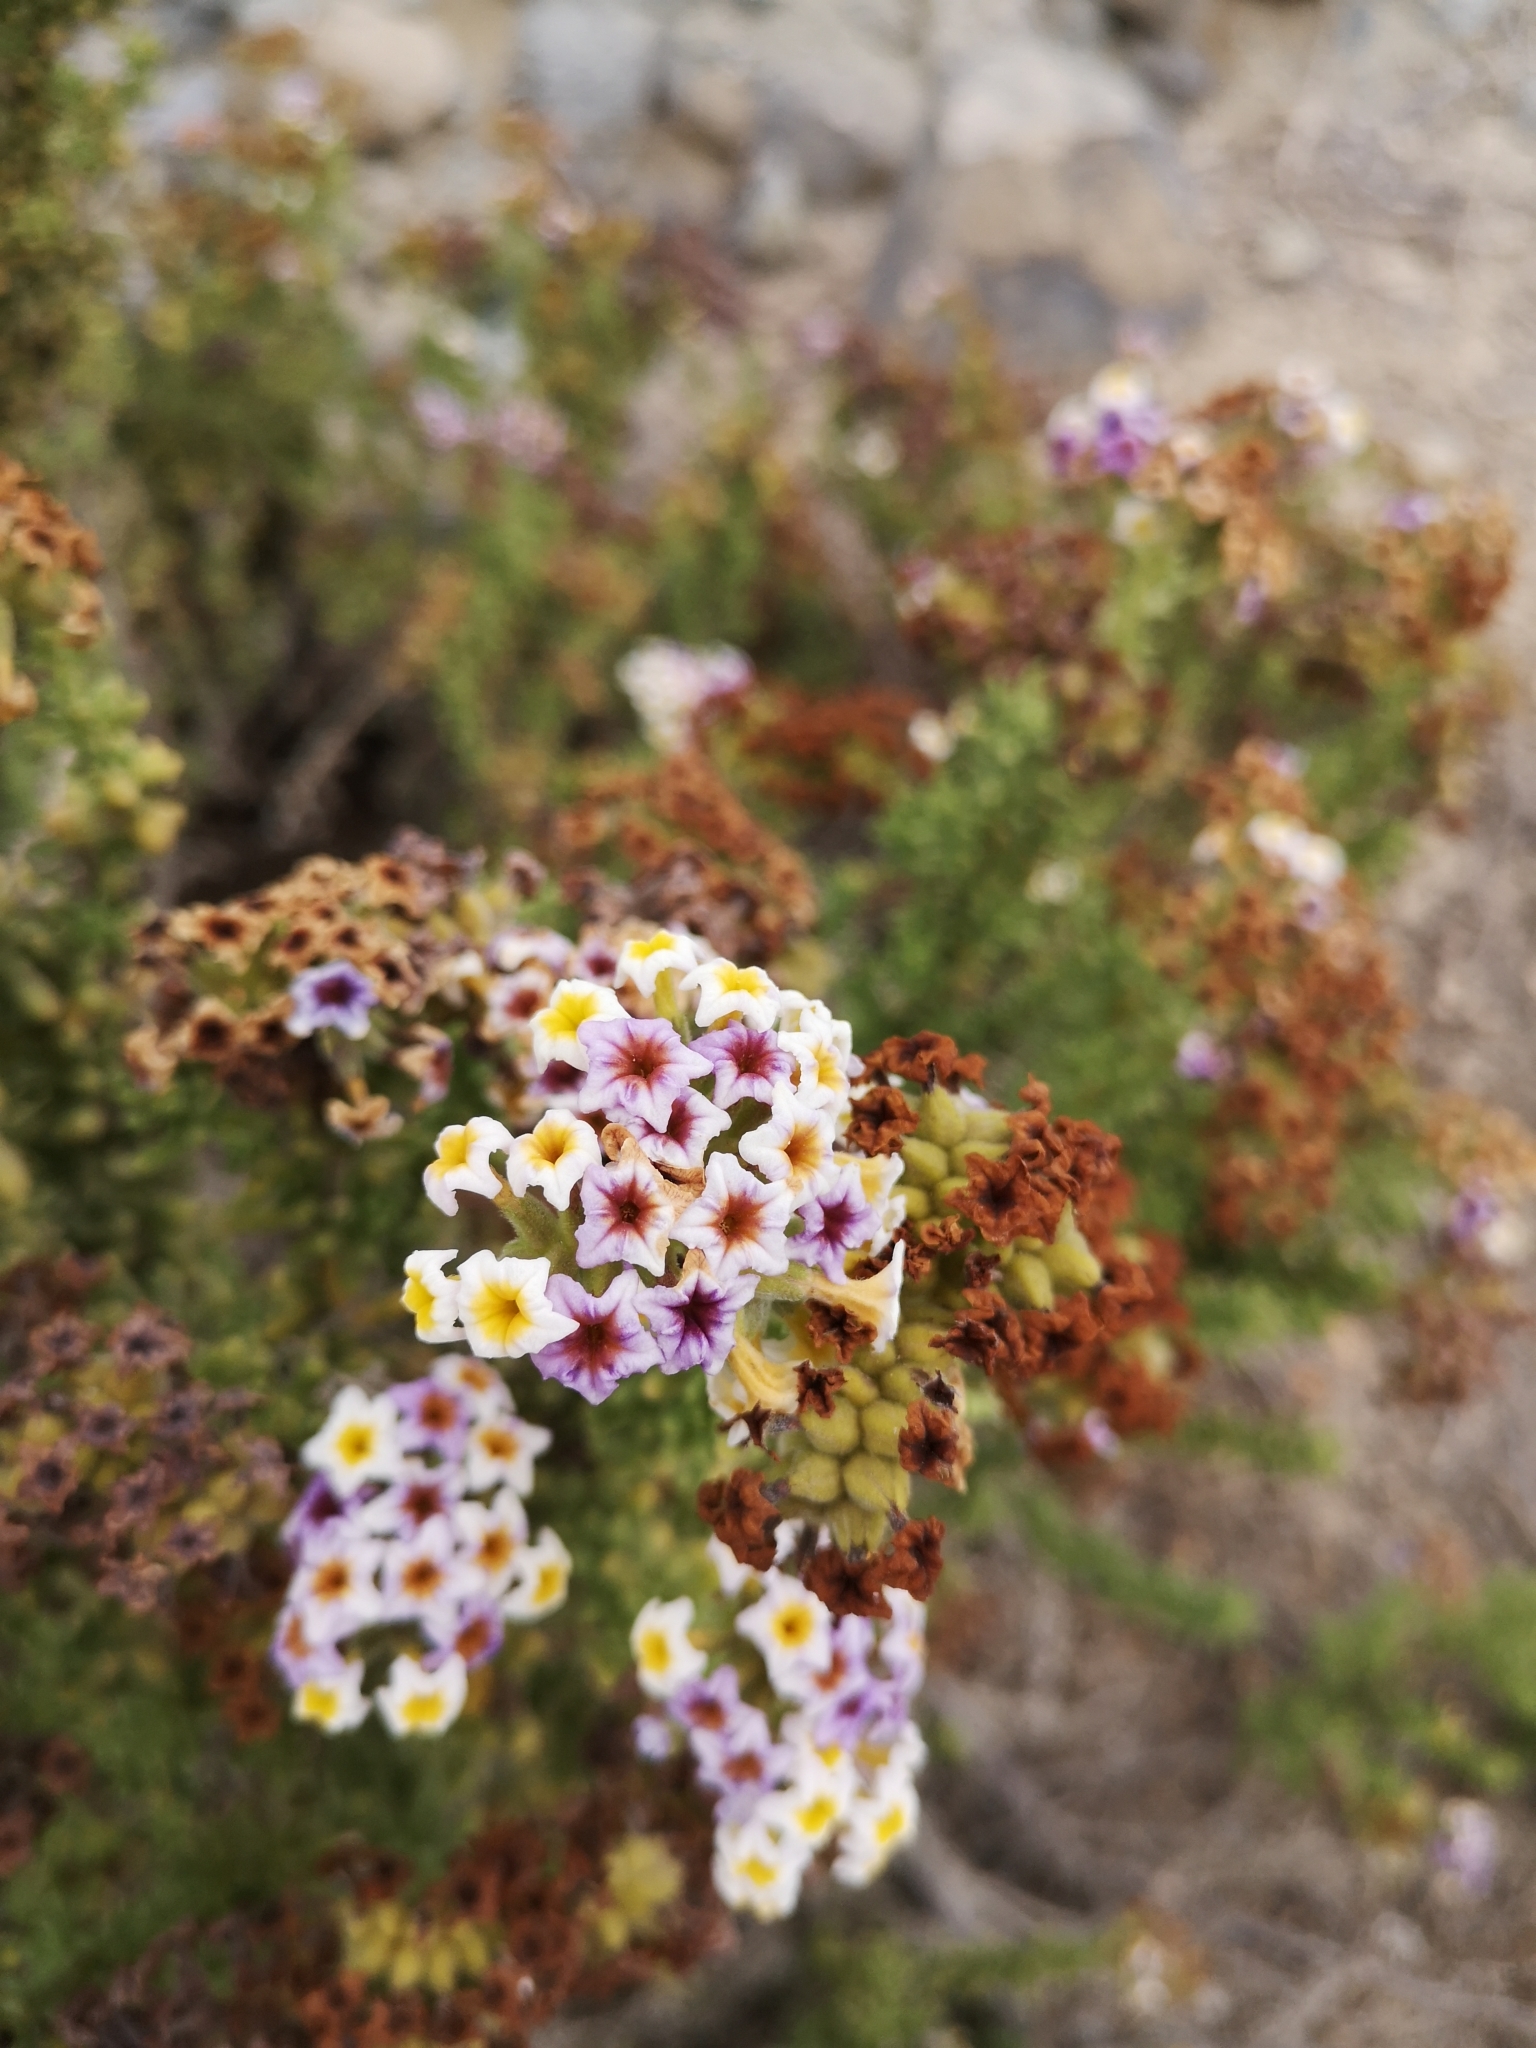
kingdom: Plantae
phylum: Tracheophyta
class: Magnoliopsida
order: Boraginales
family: Heliotropiaceae
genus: Heliotropium
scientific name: Heliotropium pycnophyllum
